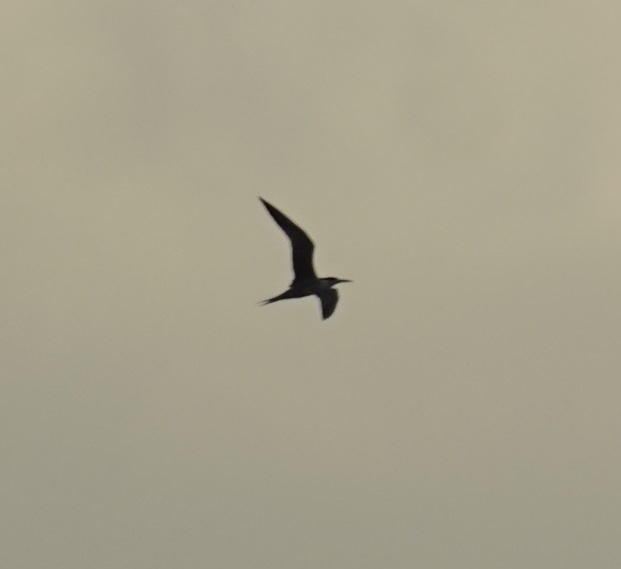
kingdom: Animalia
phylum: Chordata
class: Aves
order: Charadriiformes
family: Laridae
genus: Thalasseus
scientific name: Thalasseus bergii
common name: Greater crested tern
